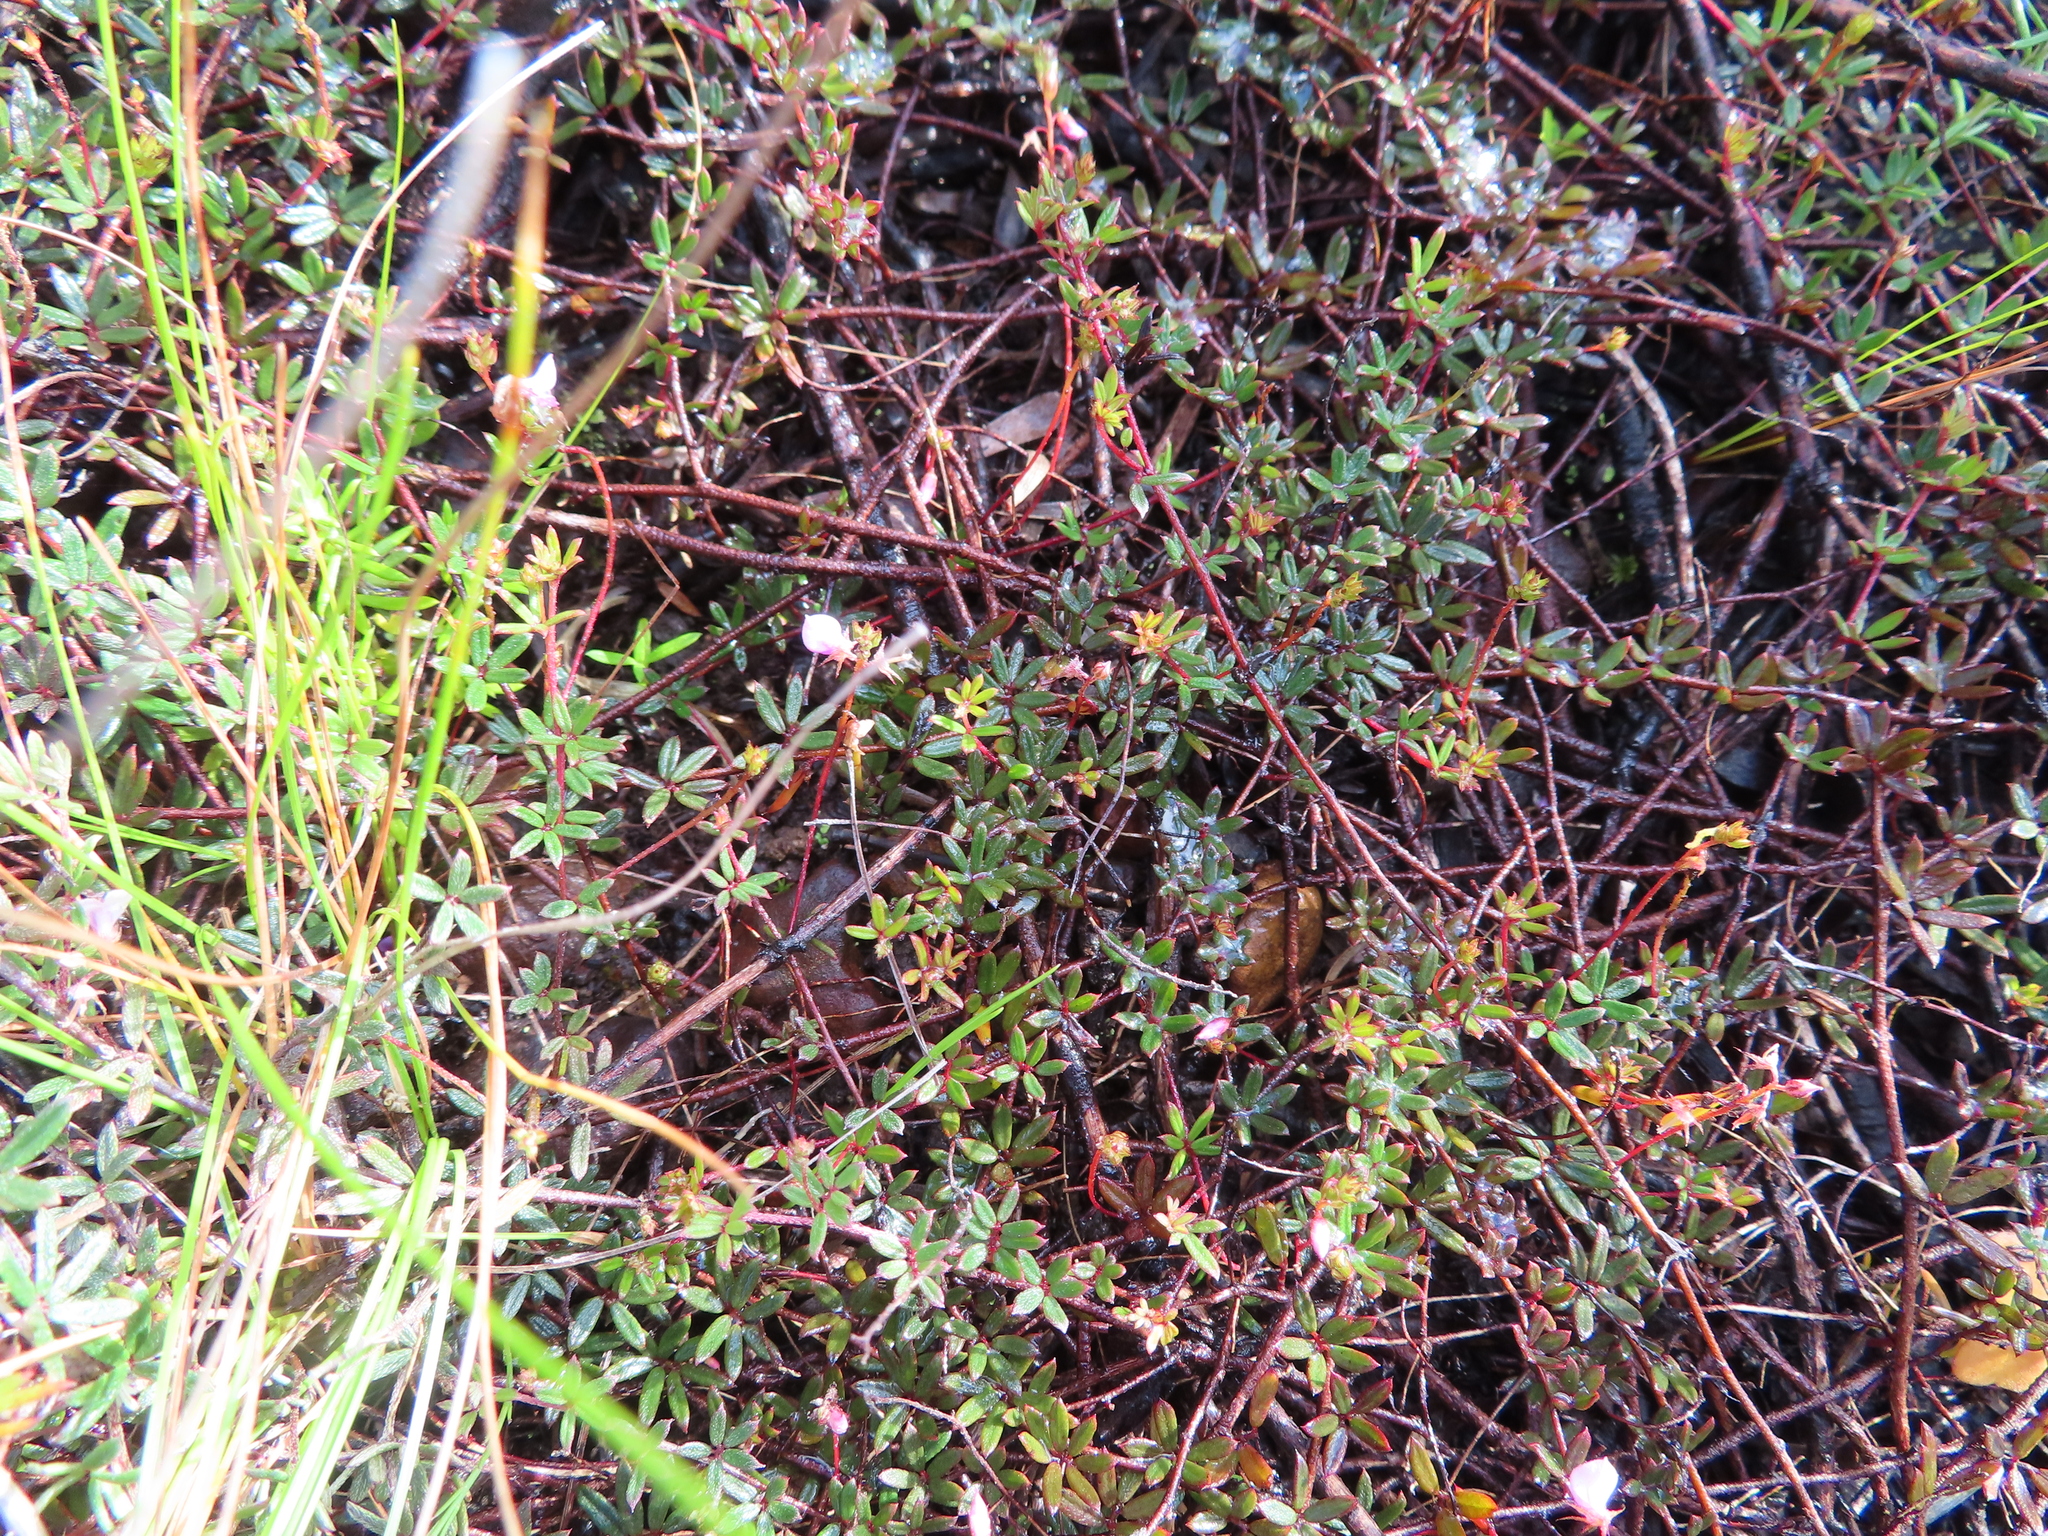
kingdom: Plantae
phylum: Tracheophyta
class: Magnoliopsida
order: Fabales
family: Fabaceae
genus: Indigofera
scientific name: Indigofera angustifolia
